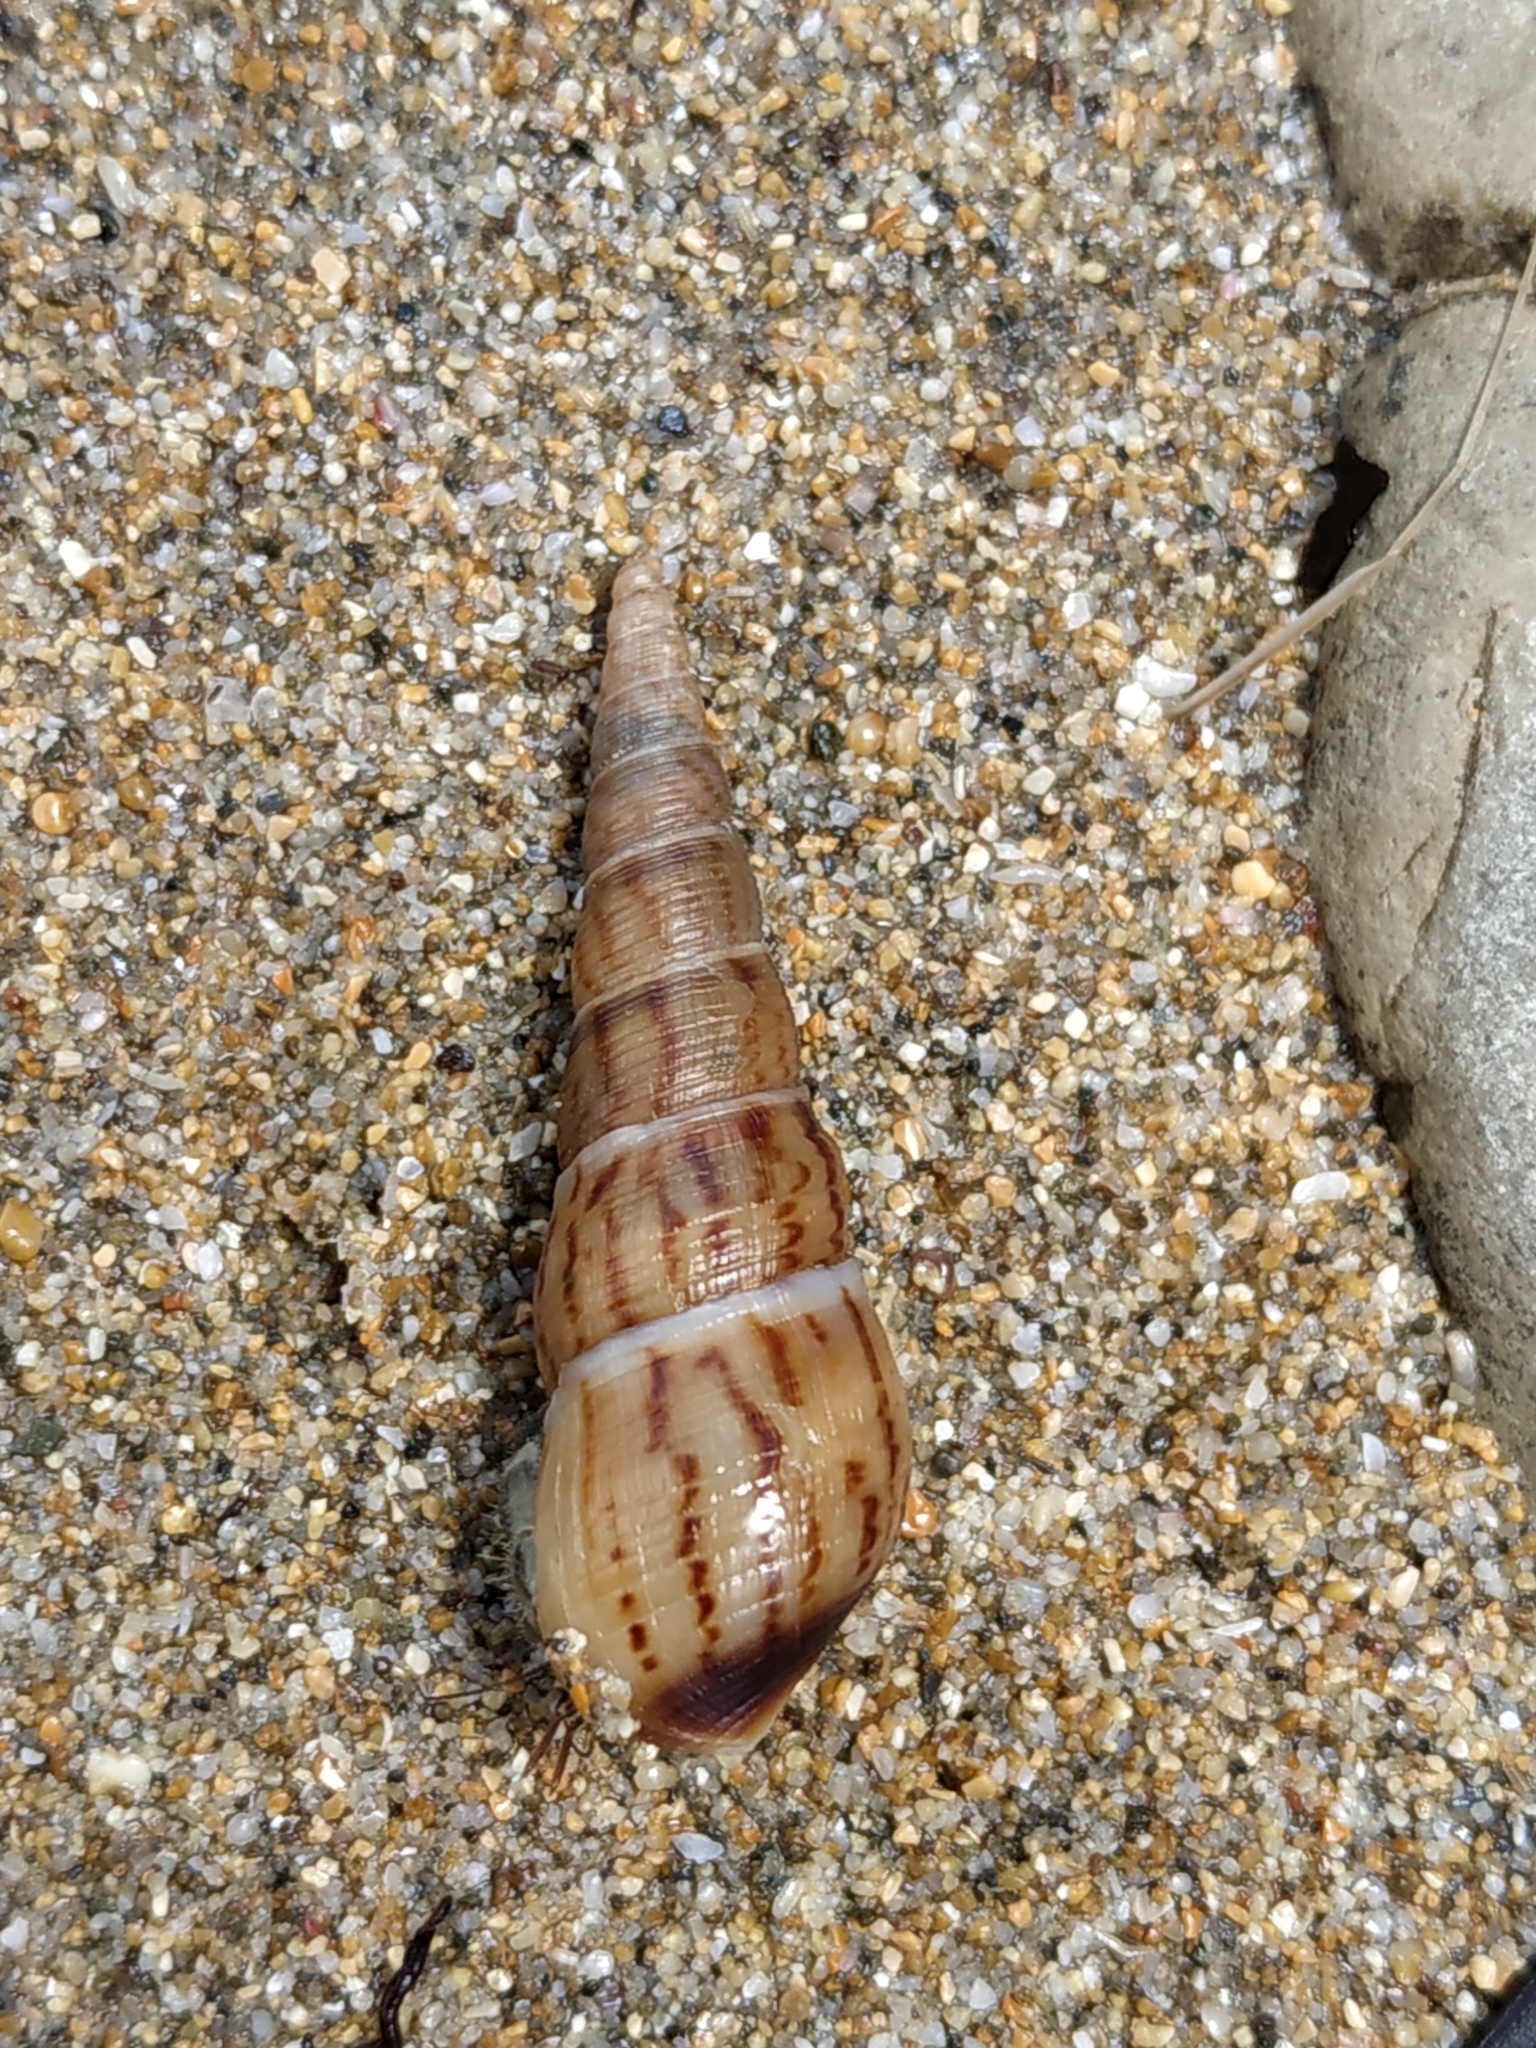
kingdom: Animalia
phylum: Mollusca
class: Gastropoda
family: Thiaridae
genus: Melanoides
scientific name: Melanoides tuberculata
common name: Red-rim melania
